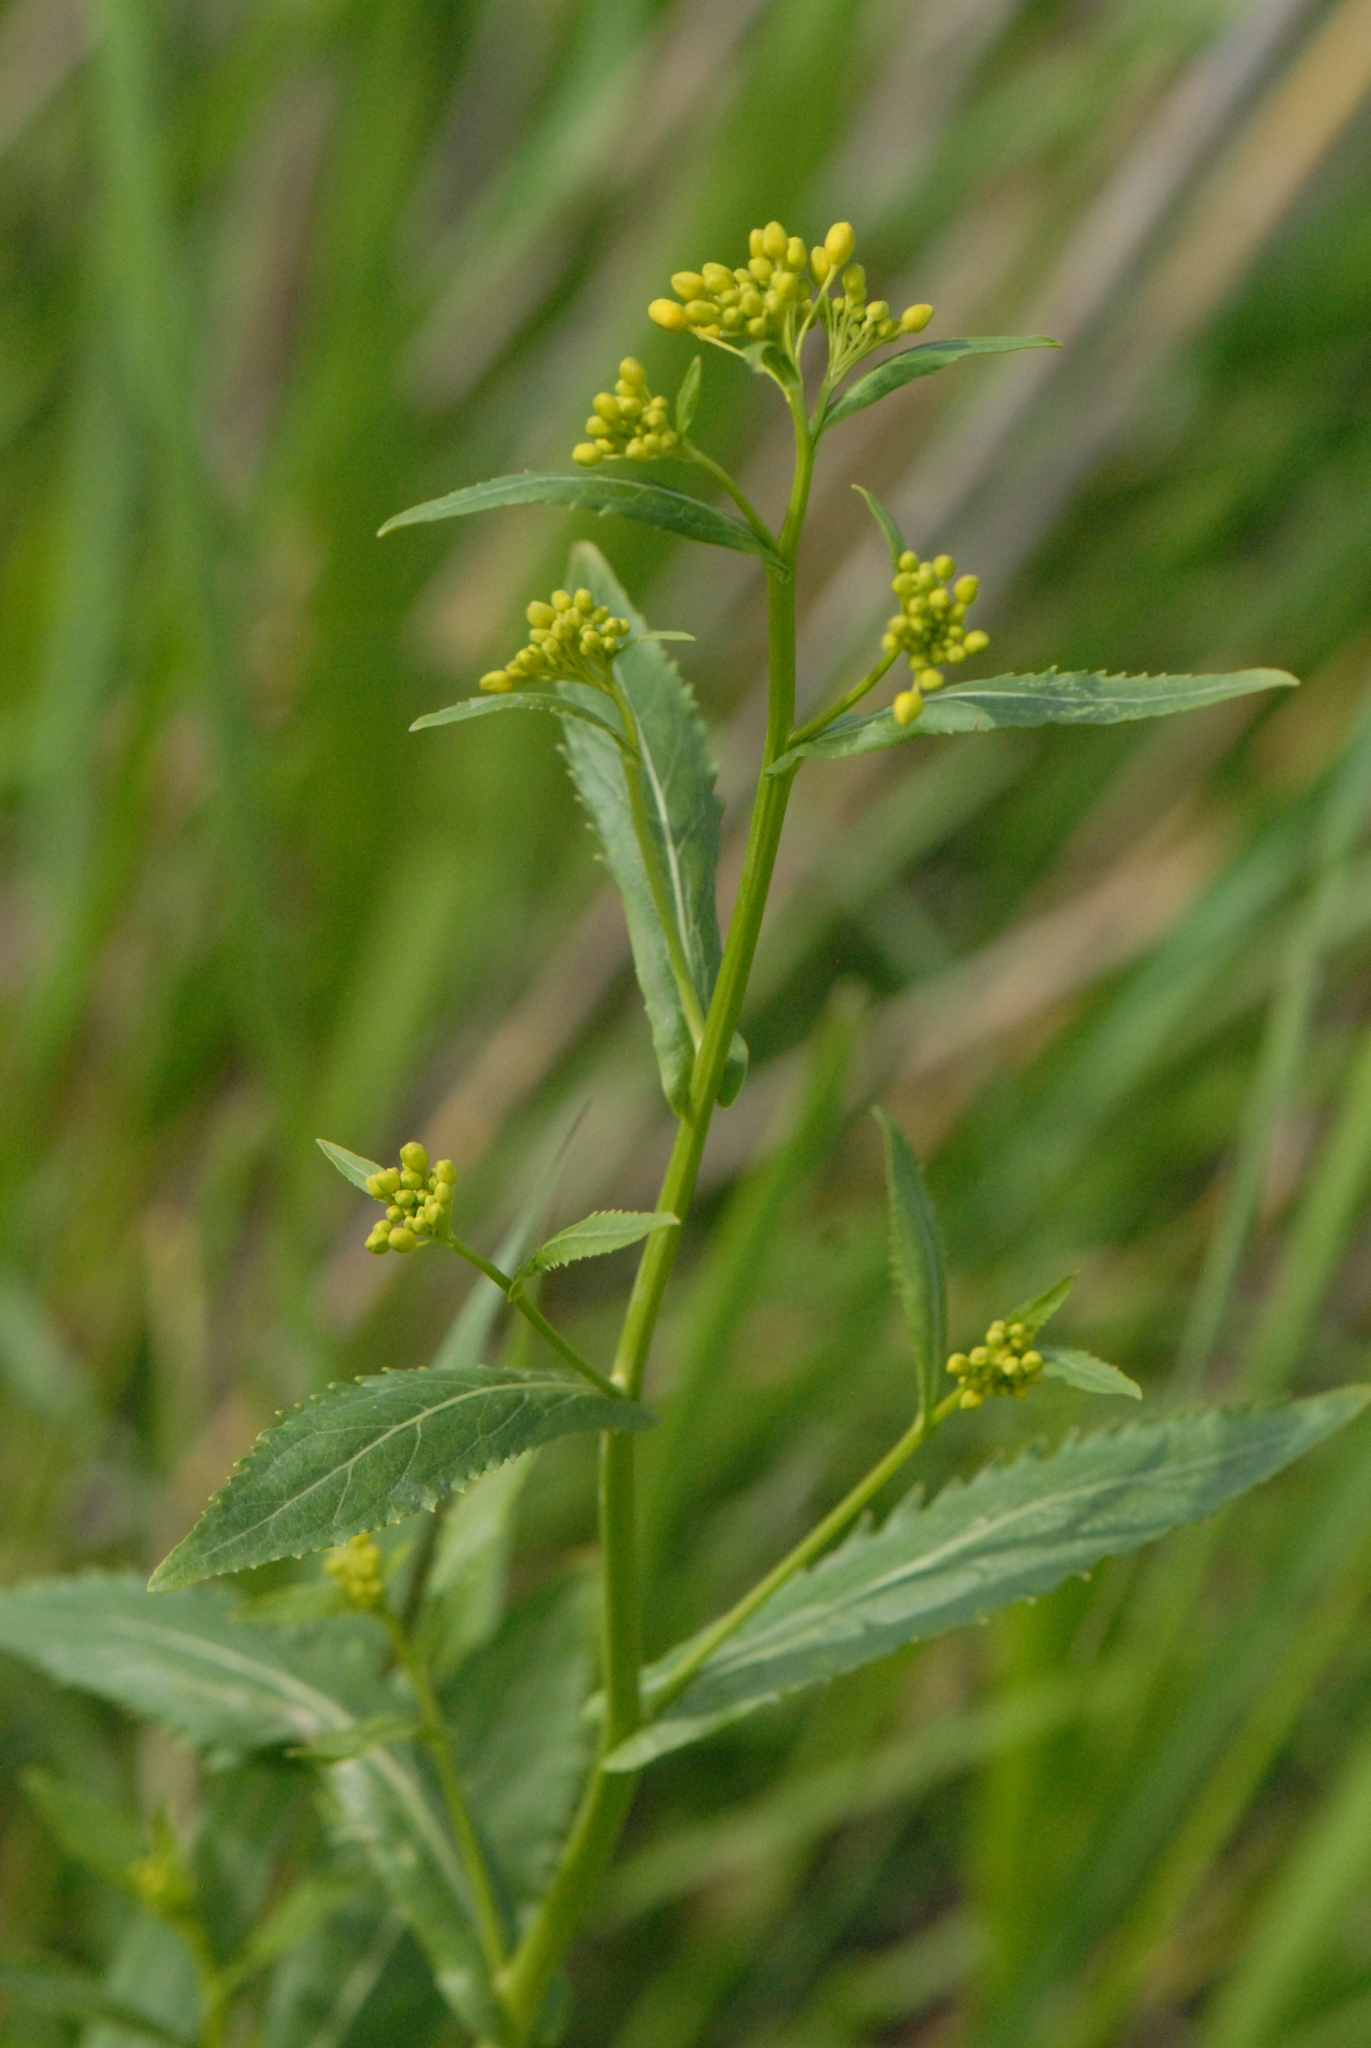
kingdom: Plantae
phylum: Tracheophyta
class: Magnoliopsida
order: Brassicales
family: Brassicaceae
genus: Rorippa
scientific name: Rorippa austriaca
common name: Austrian yellow-cress
